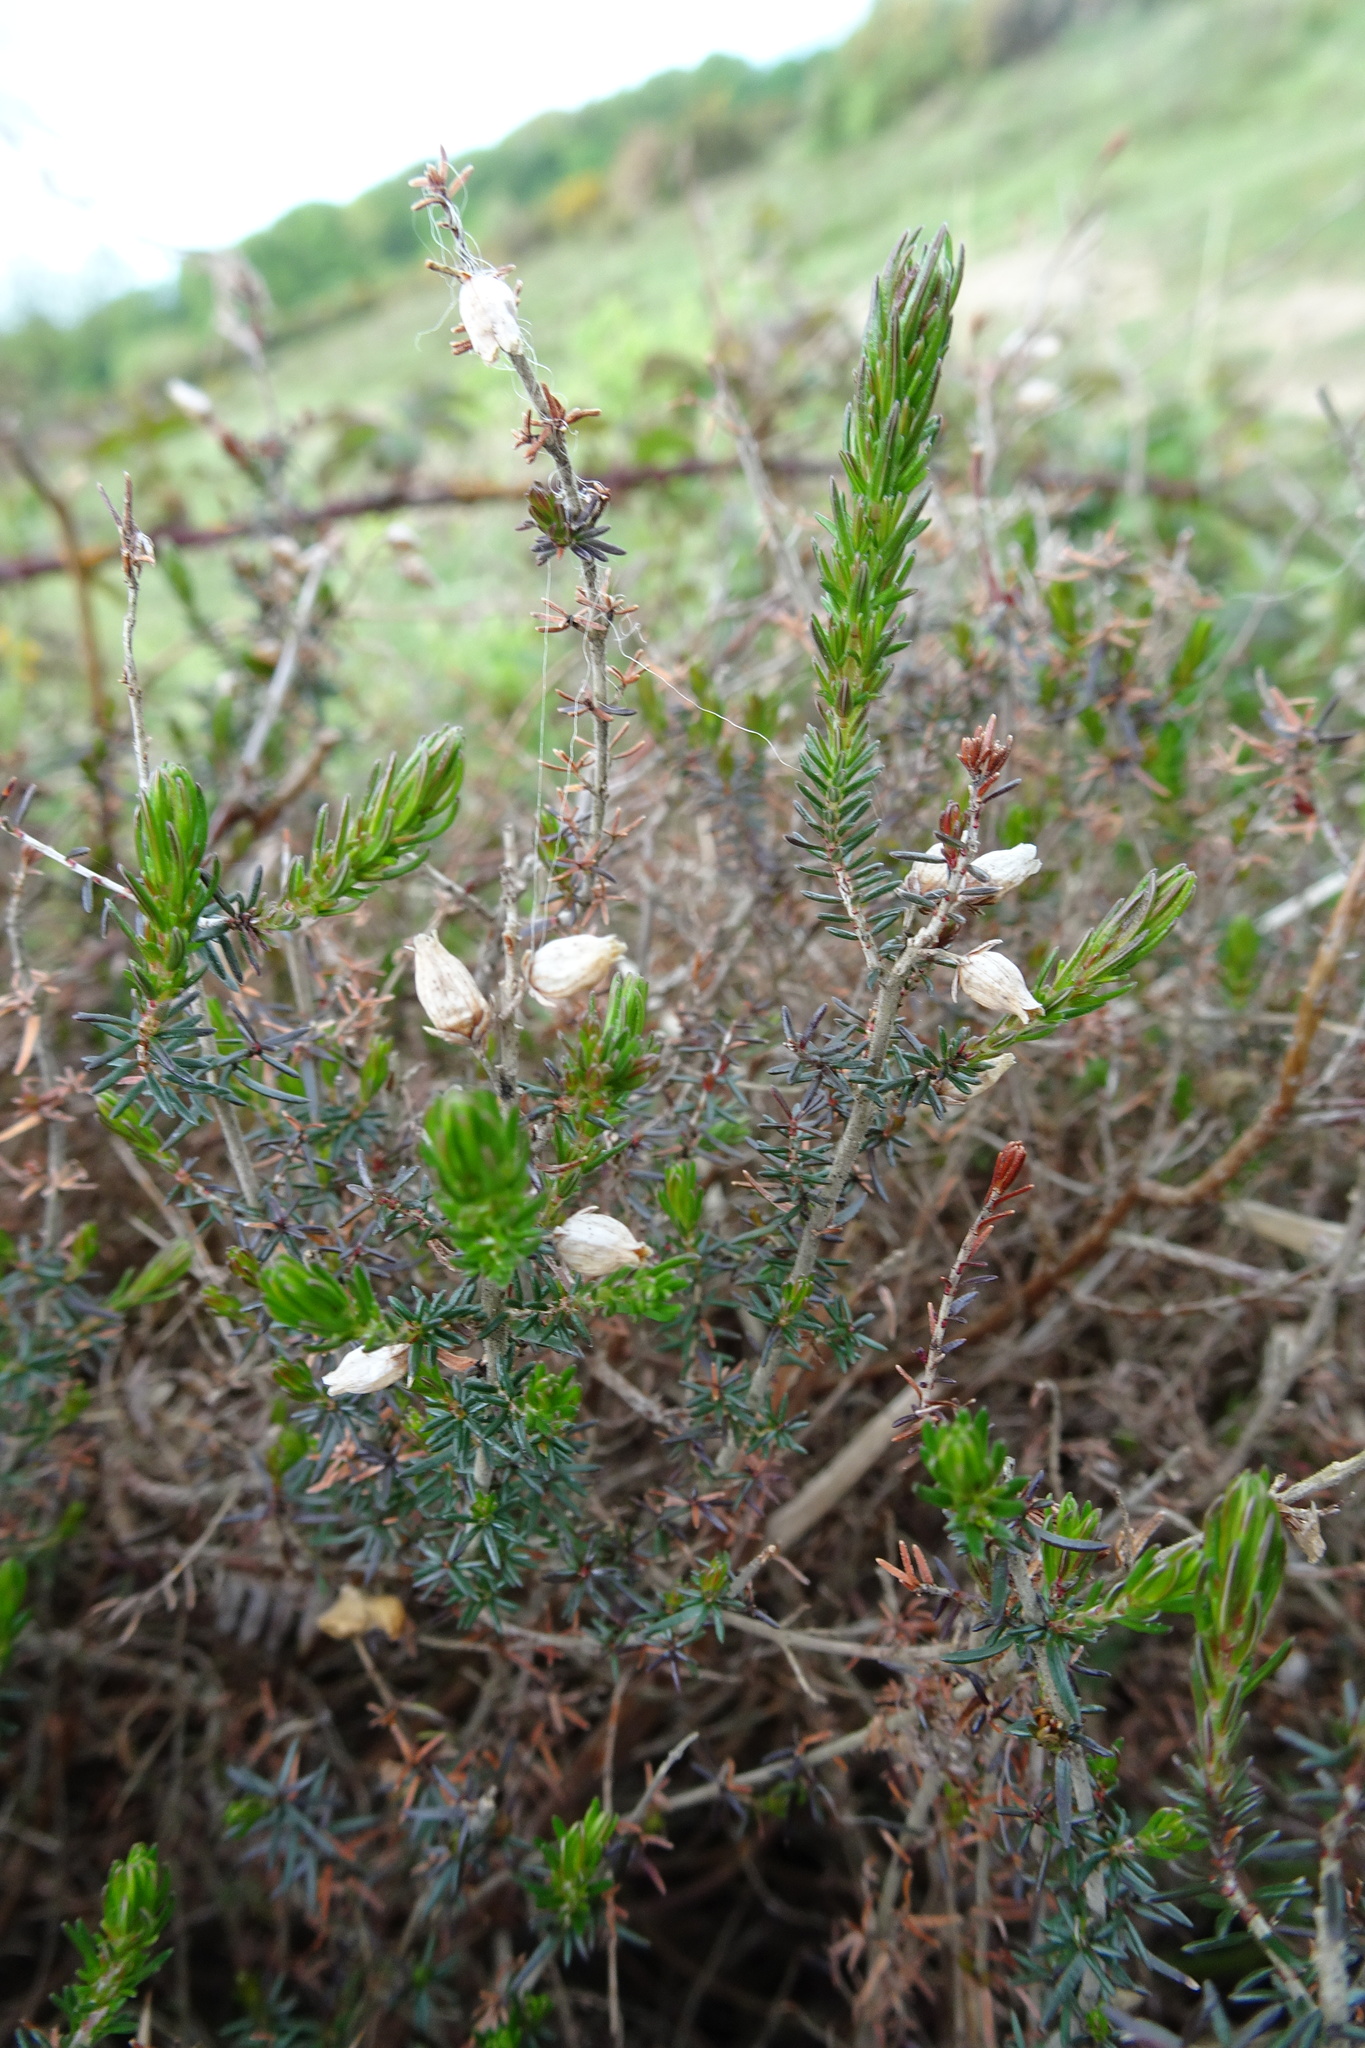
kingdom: Plantae
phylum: Tracheophyta
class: Magnoliopsida
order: Ericales
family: Ericaceae
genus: Erica
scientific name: Erica cinerea
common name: Bell heather
